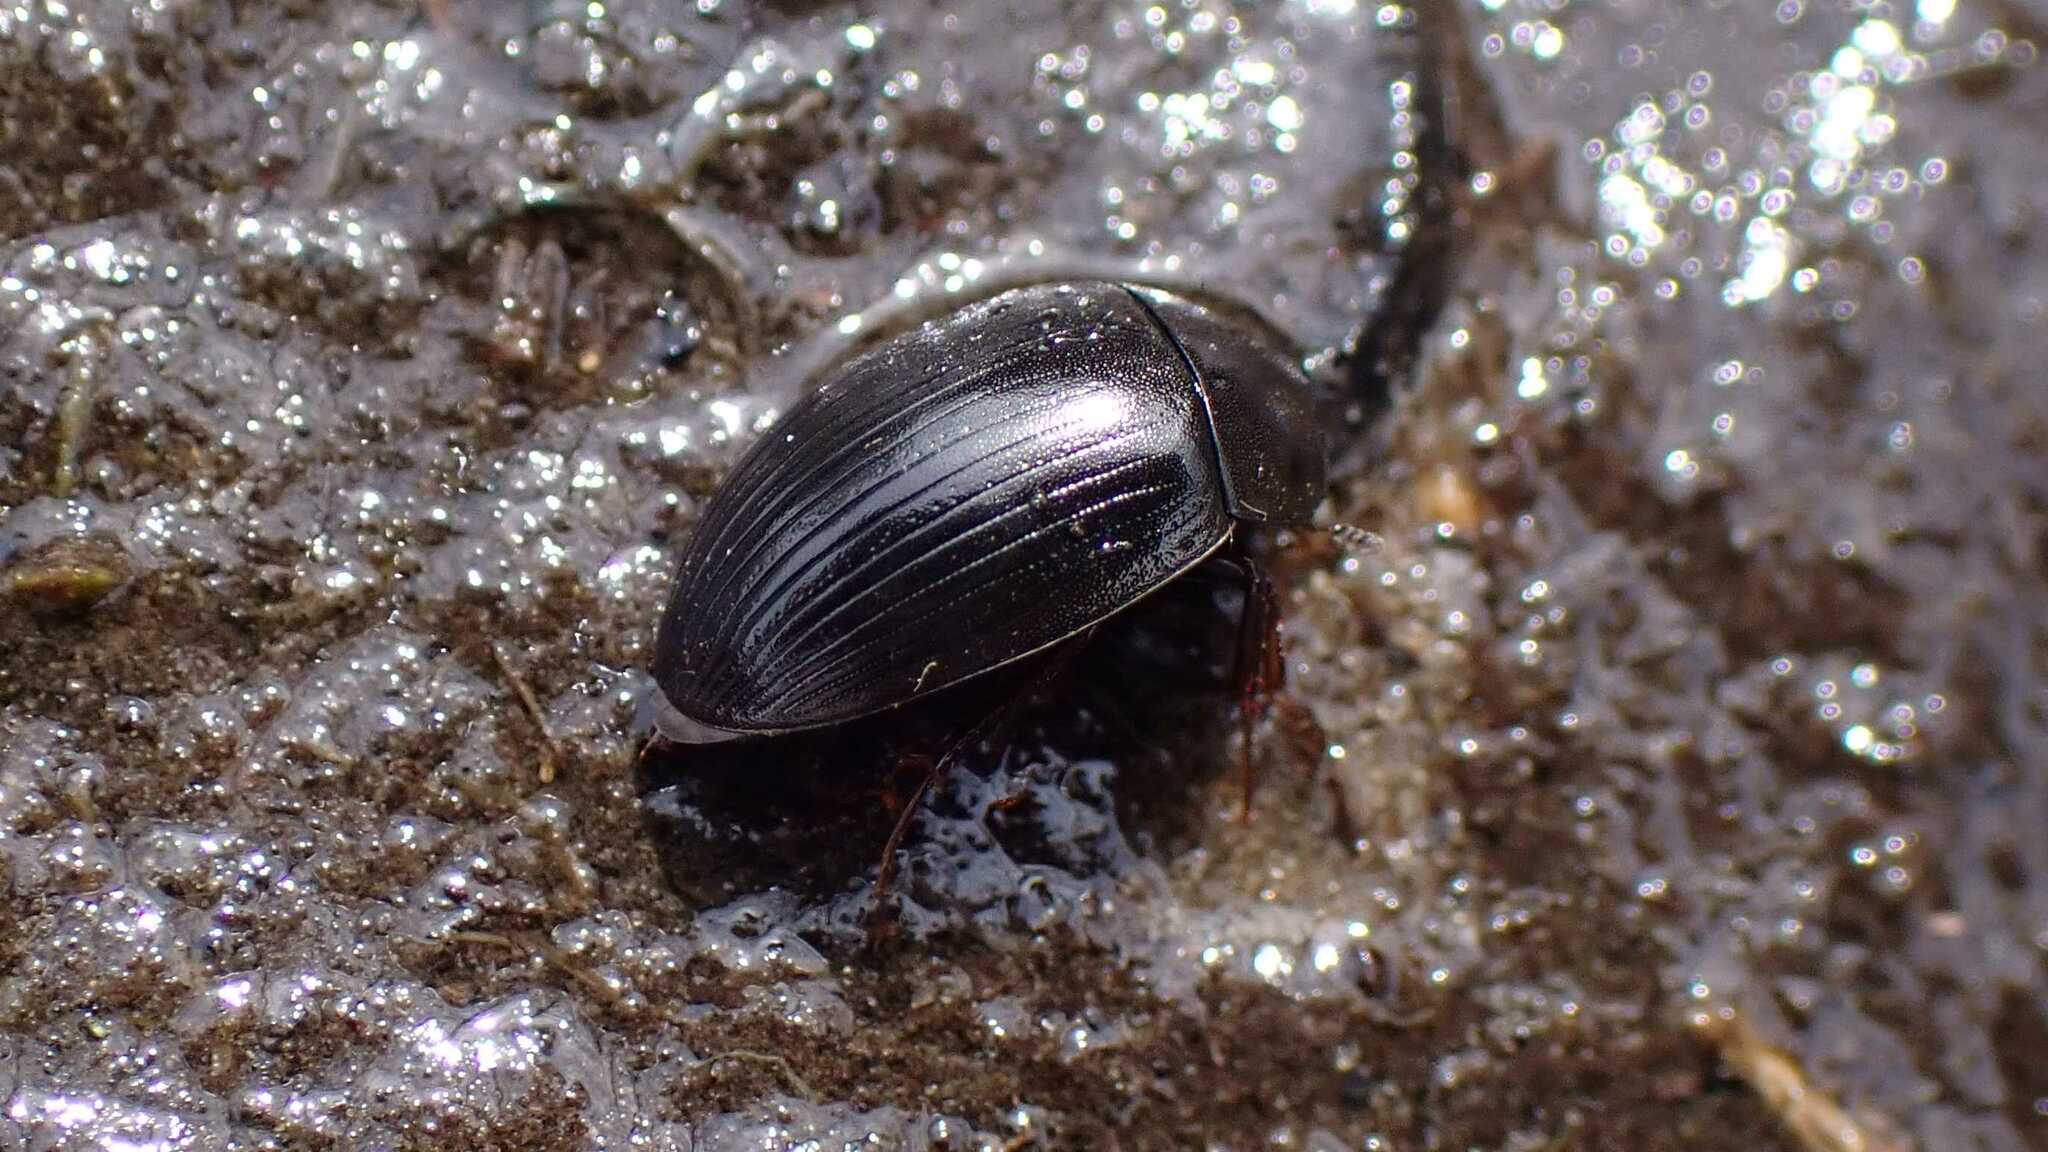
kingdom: Animalia
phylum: Arthropoda
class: Insecta
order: Coleoptera
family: Hydrophilidae
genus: Hydrobius
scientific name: Hydrobius
